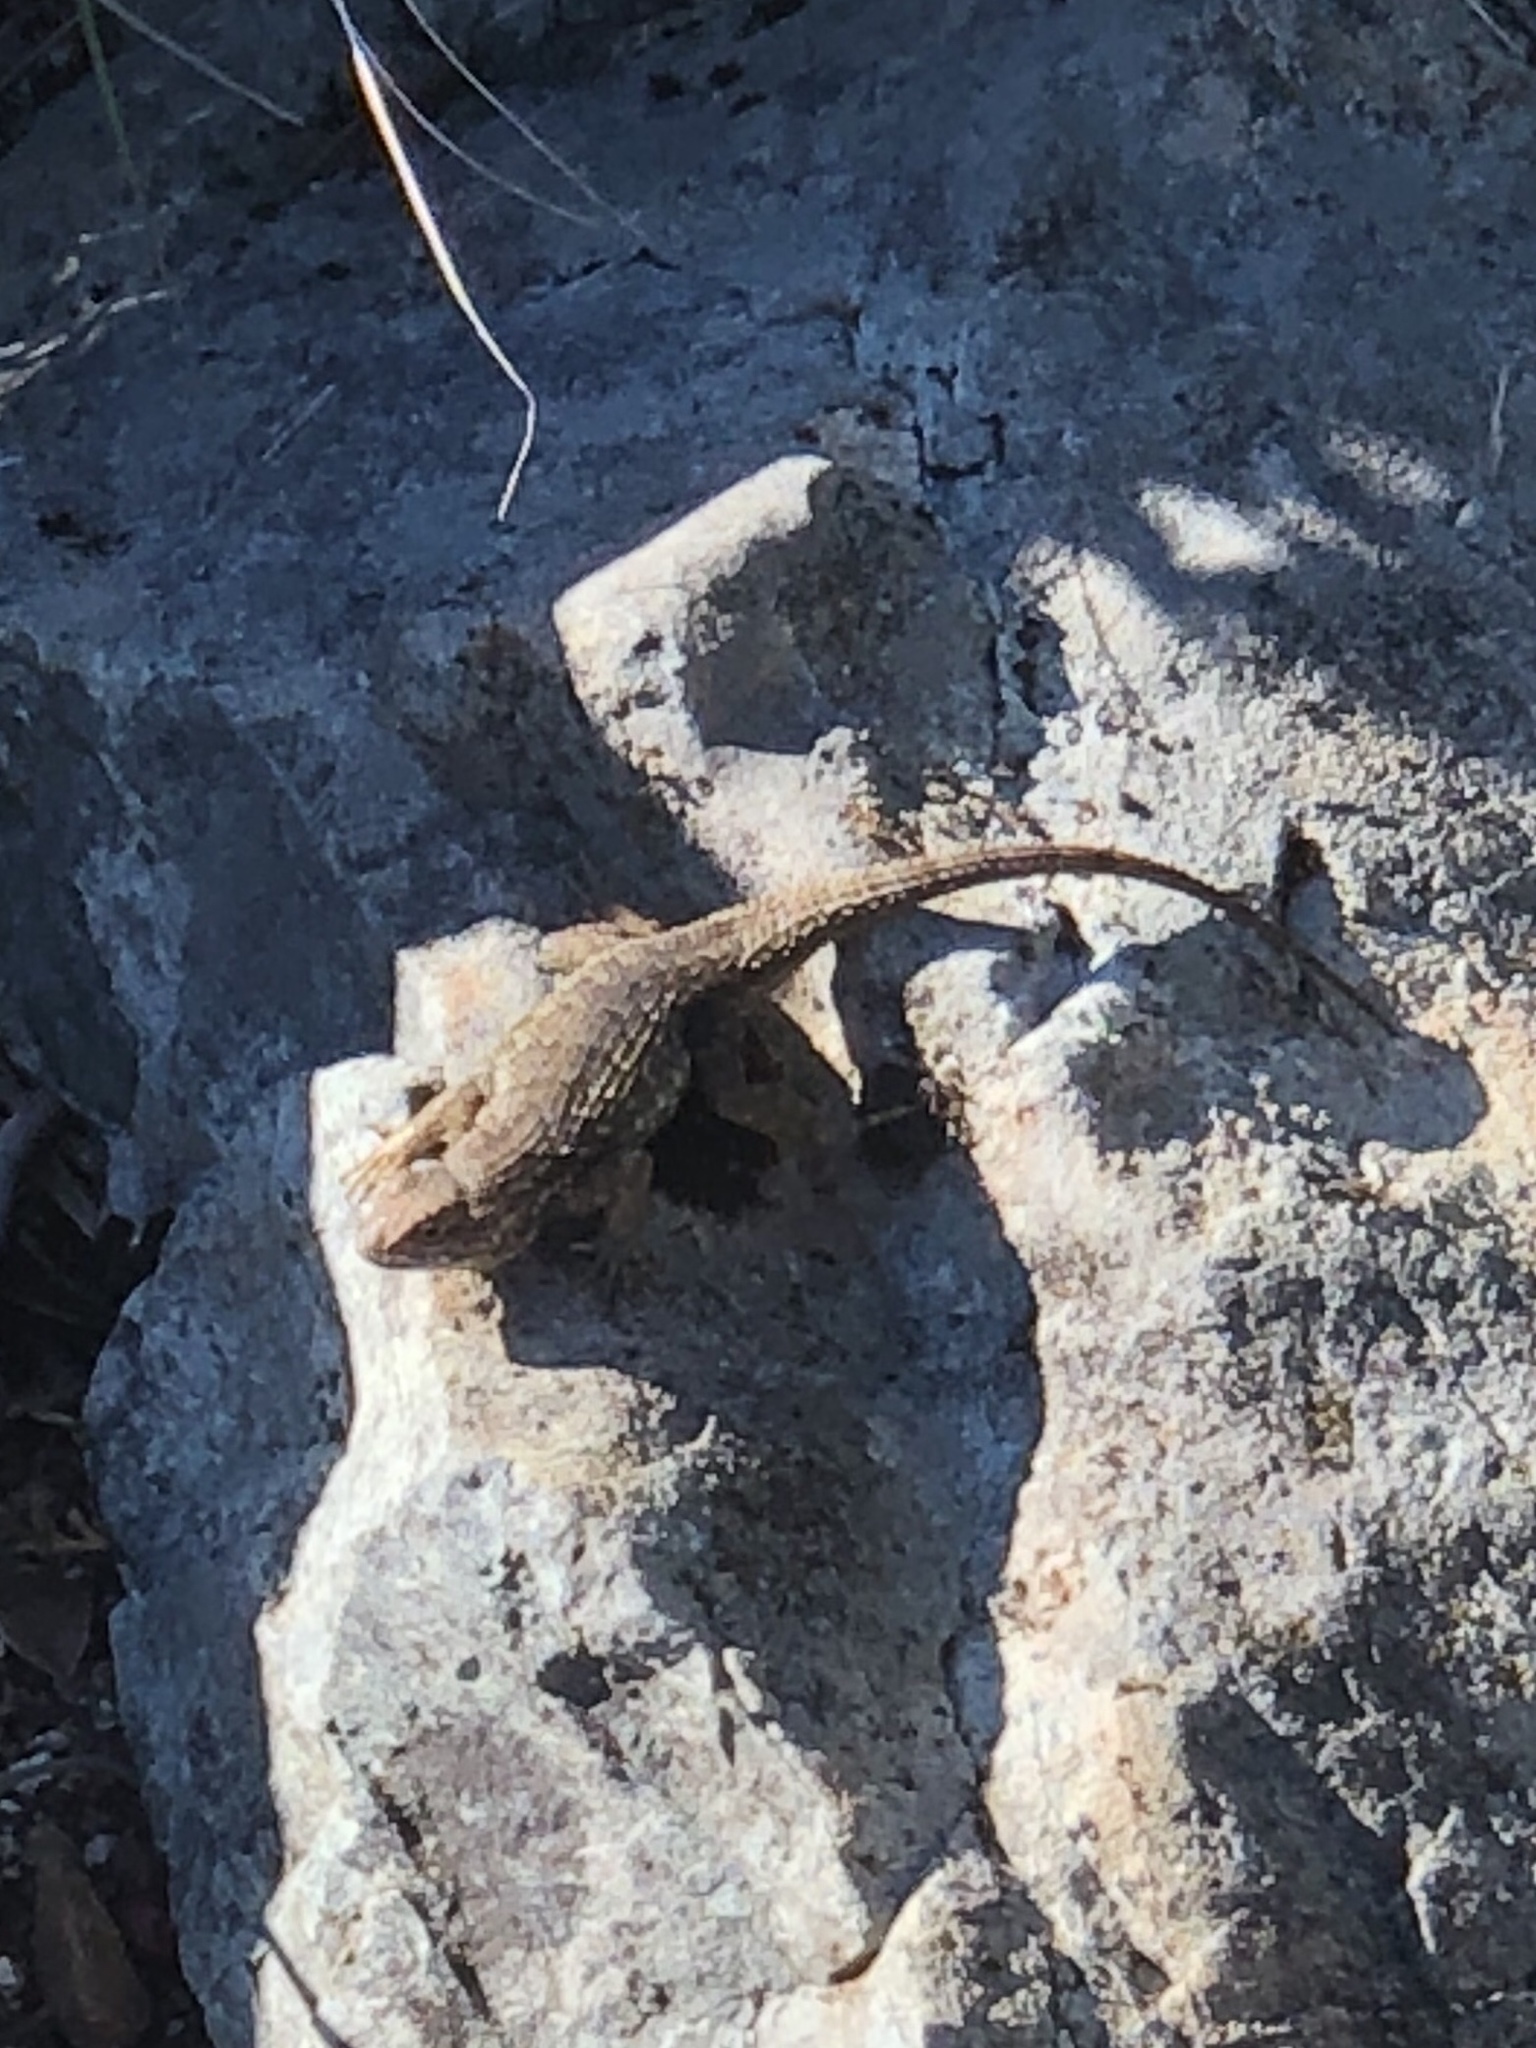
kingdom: Animalia
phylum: Chordata
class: Squamata
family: Phrynosomatidae
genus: Sceloporus
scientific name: Sceloporus occidentalis
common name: Western fence lizard
